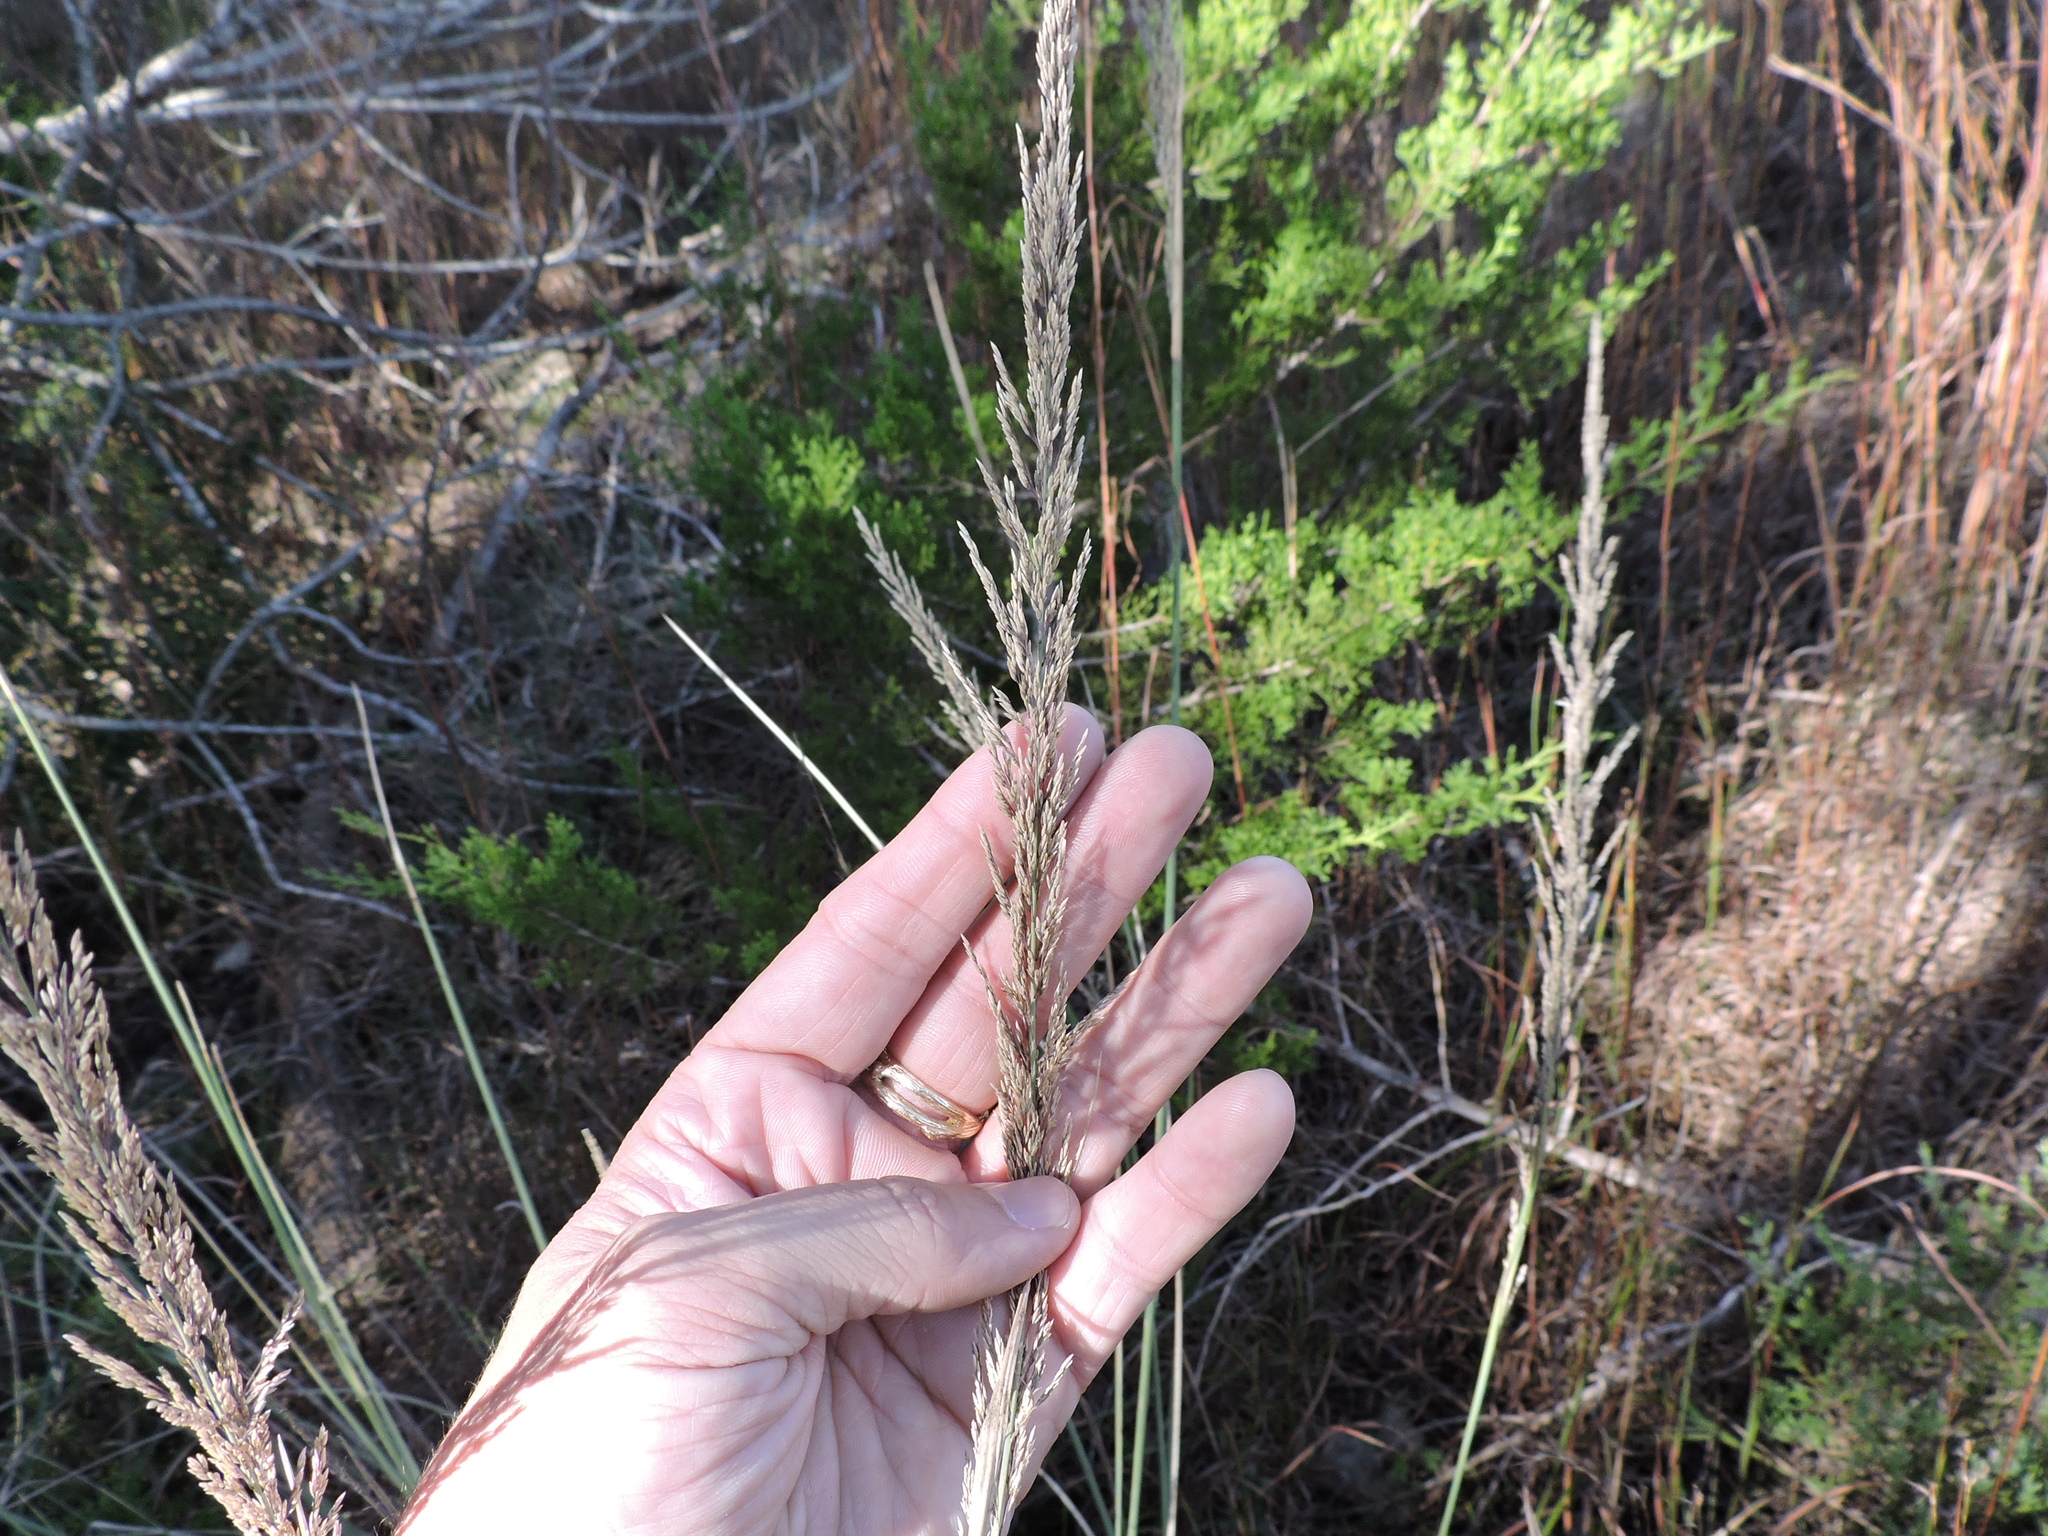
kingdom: Plantae
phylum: Tracheophyta
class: Liliopsida
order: Poales
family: Poaceae
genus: Muhlenbergia
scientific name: Muhlenbergia lindheimeri
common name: Lindheimer's muhly
